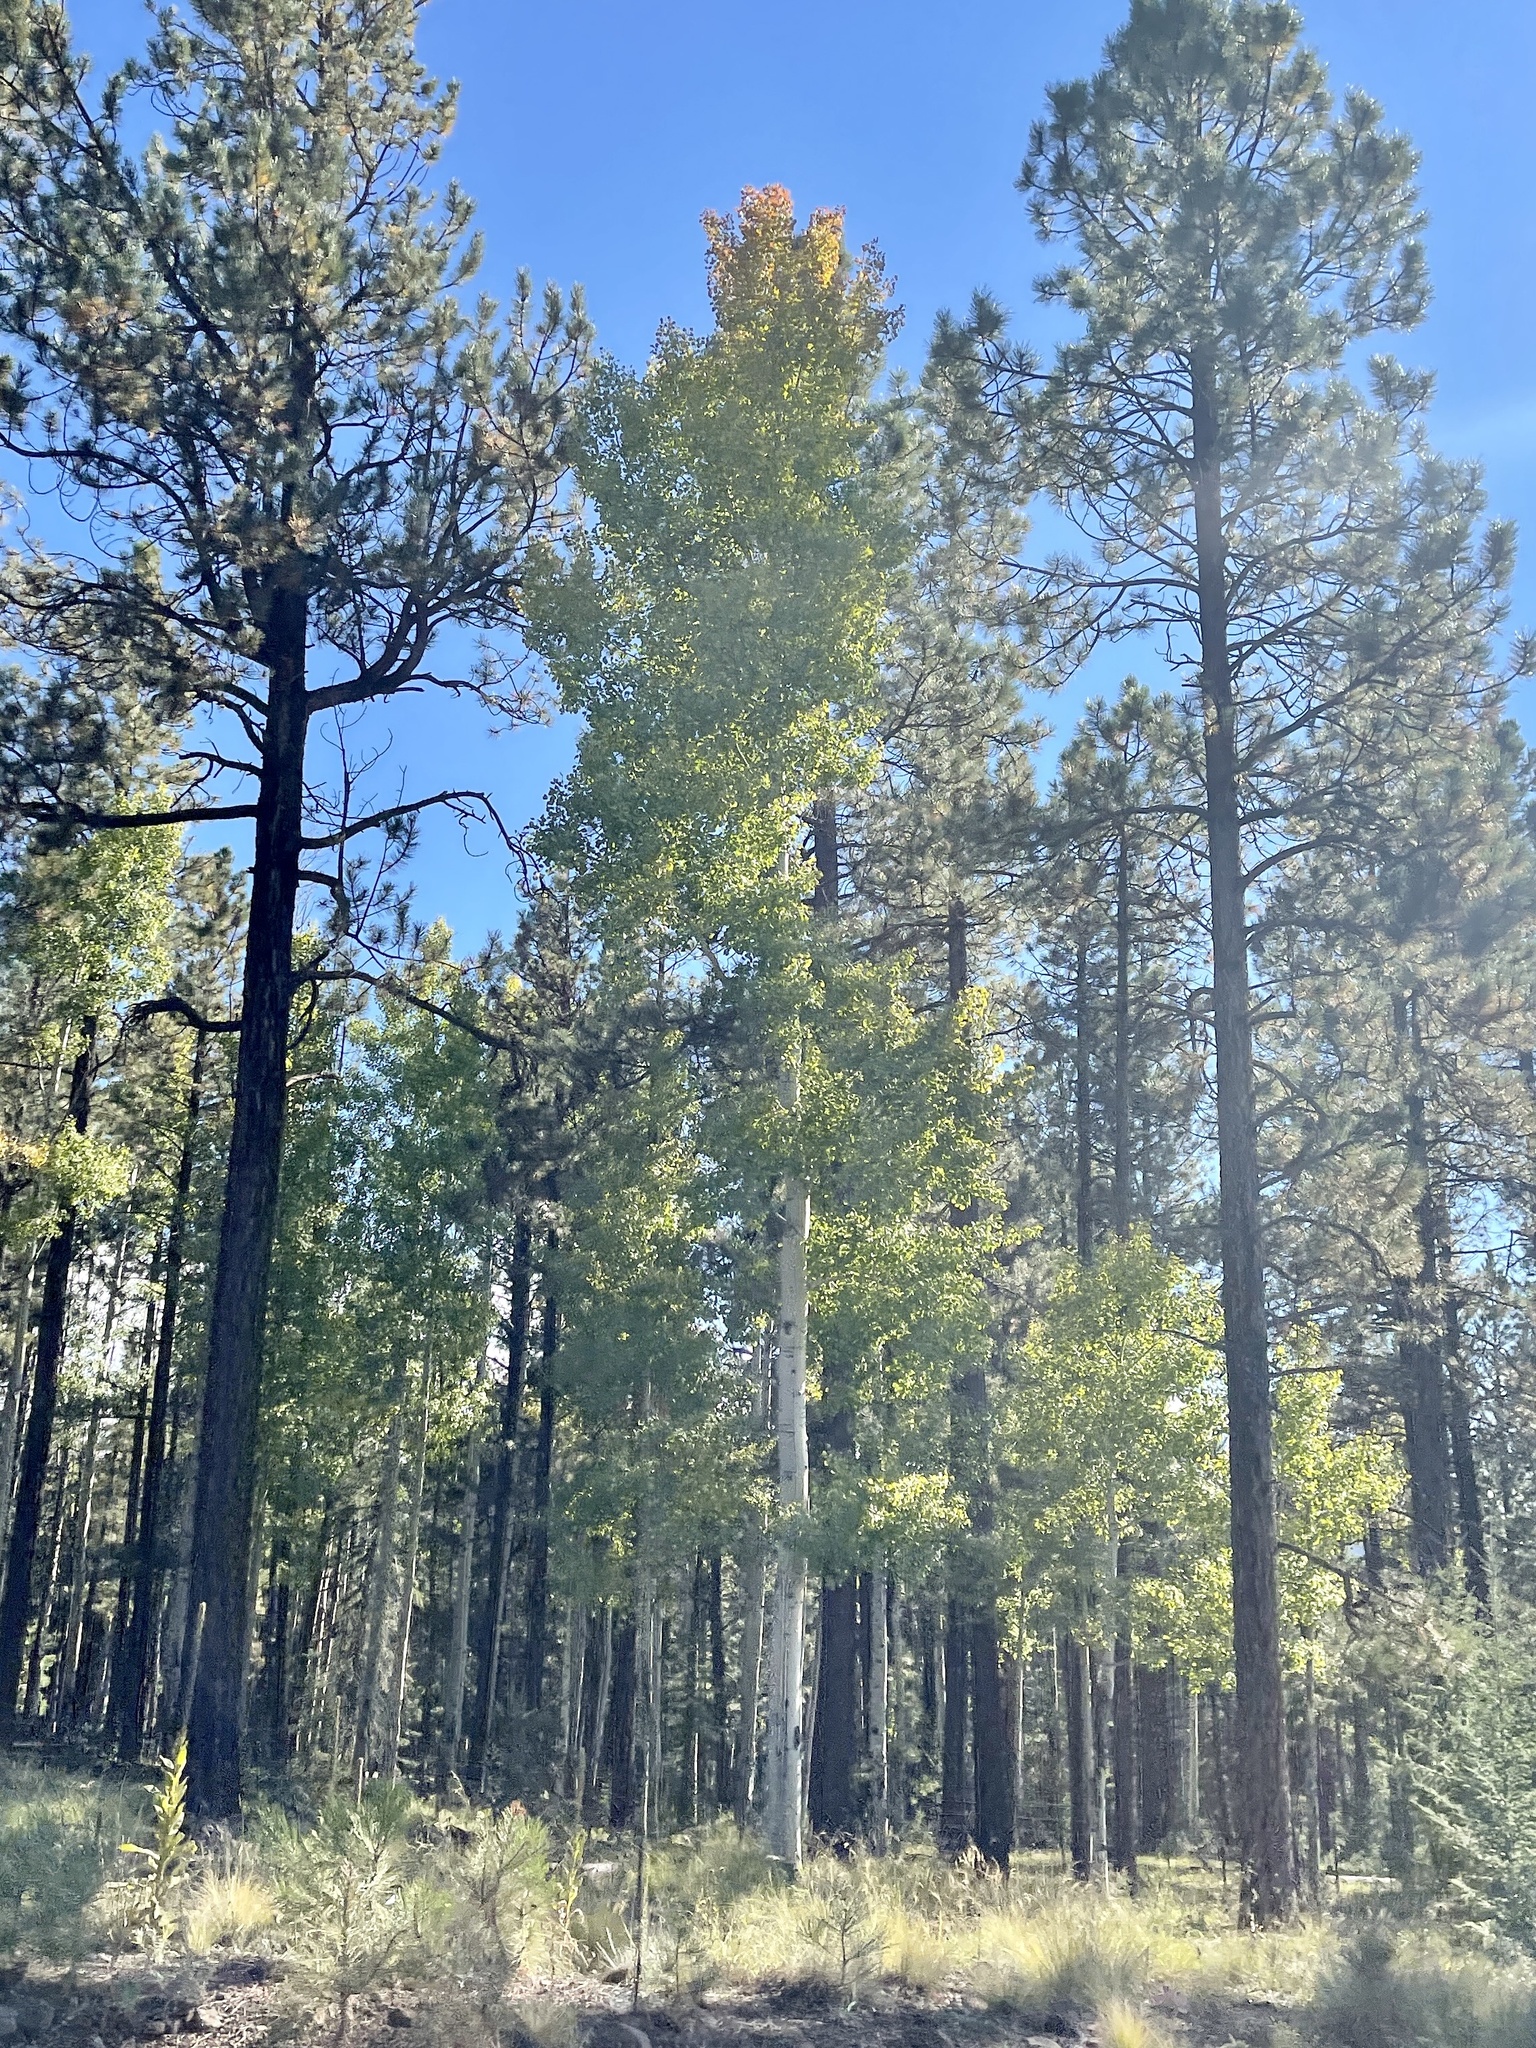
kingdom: Plantae
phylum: Tracheophyta
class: Magnoliopsida
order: Malpighiales
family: Salicaceae
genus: Populus
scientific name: Populus tremuloides
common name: Quaking aspen
